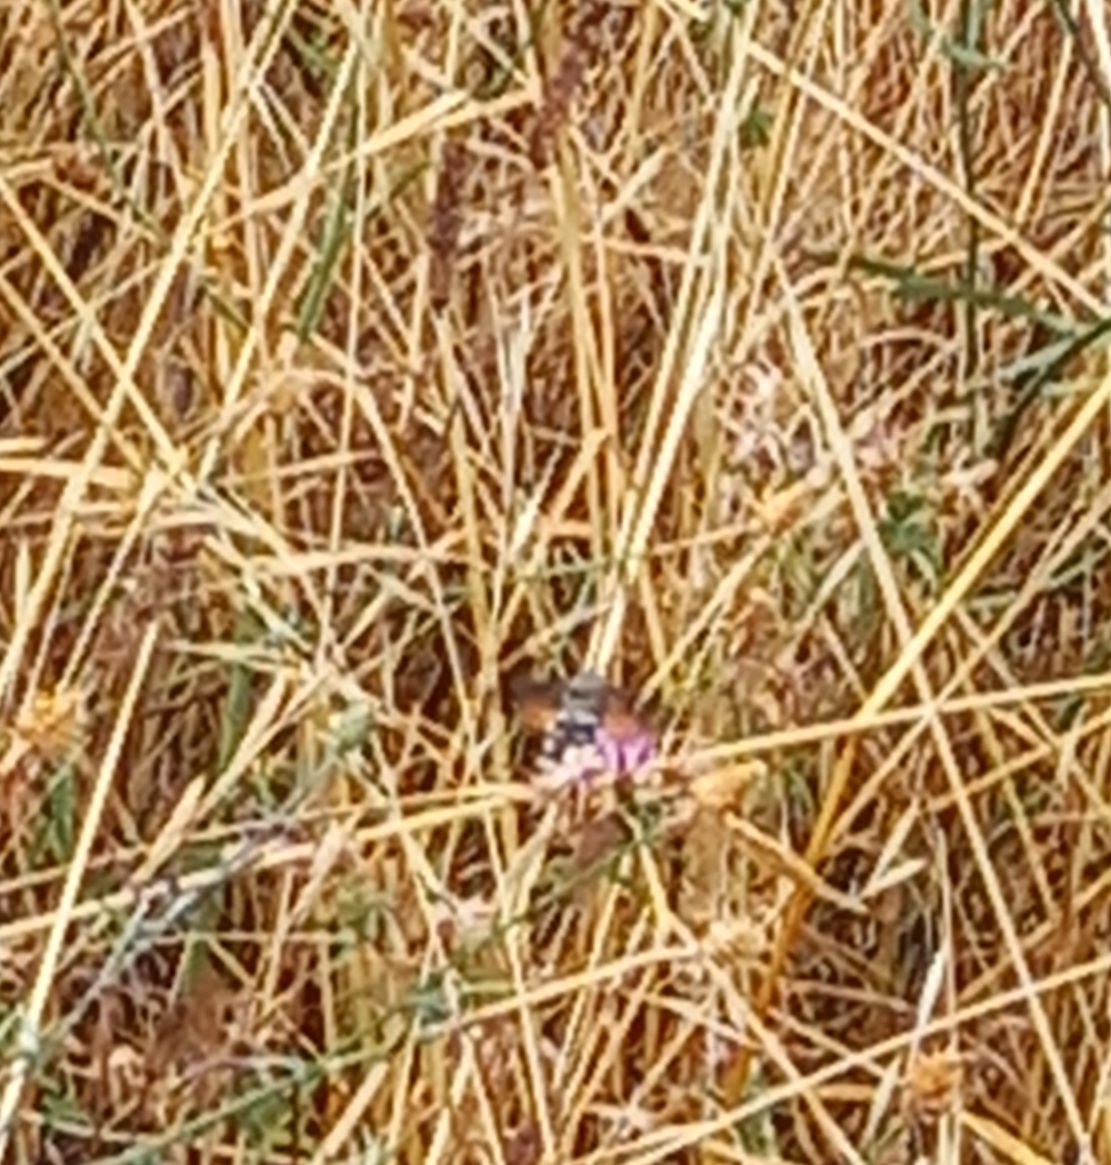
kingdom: Animalia
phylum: Arthropoda
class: Insecta
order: Lepidoptera
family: Sphingidae
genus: Macroglossum
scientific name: Macroglossum stellatarum
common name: Humming-bird hawk-moth
